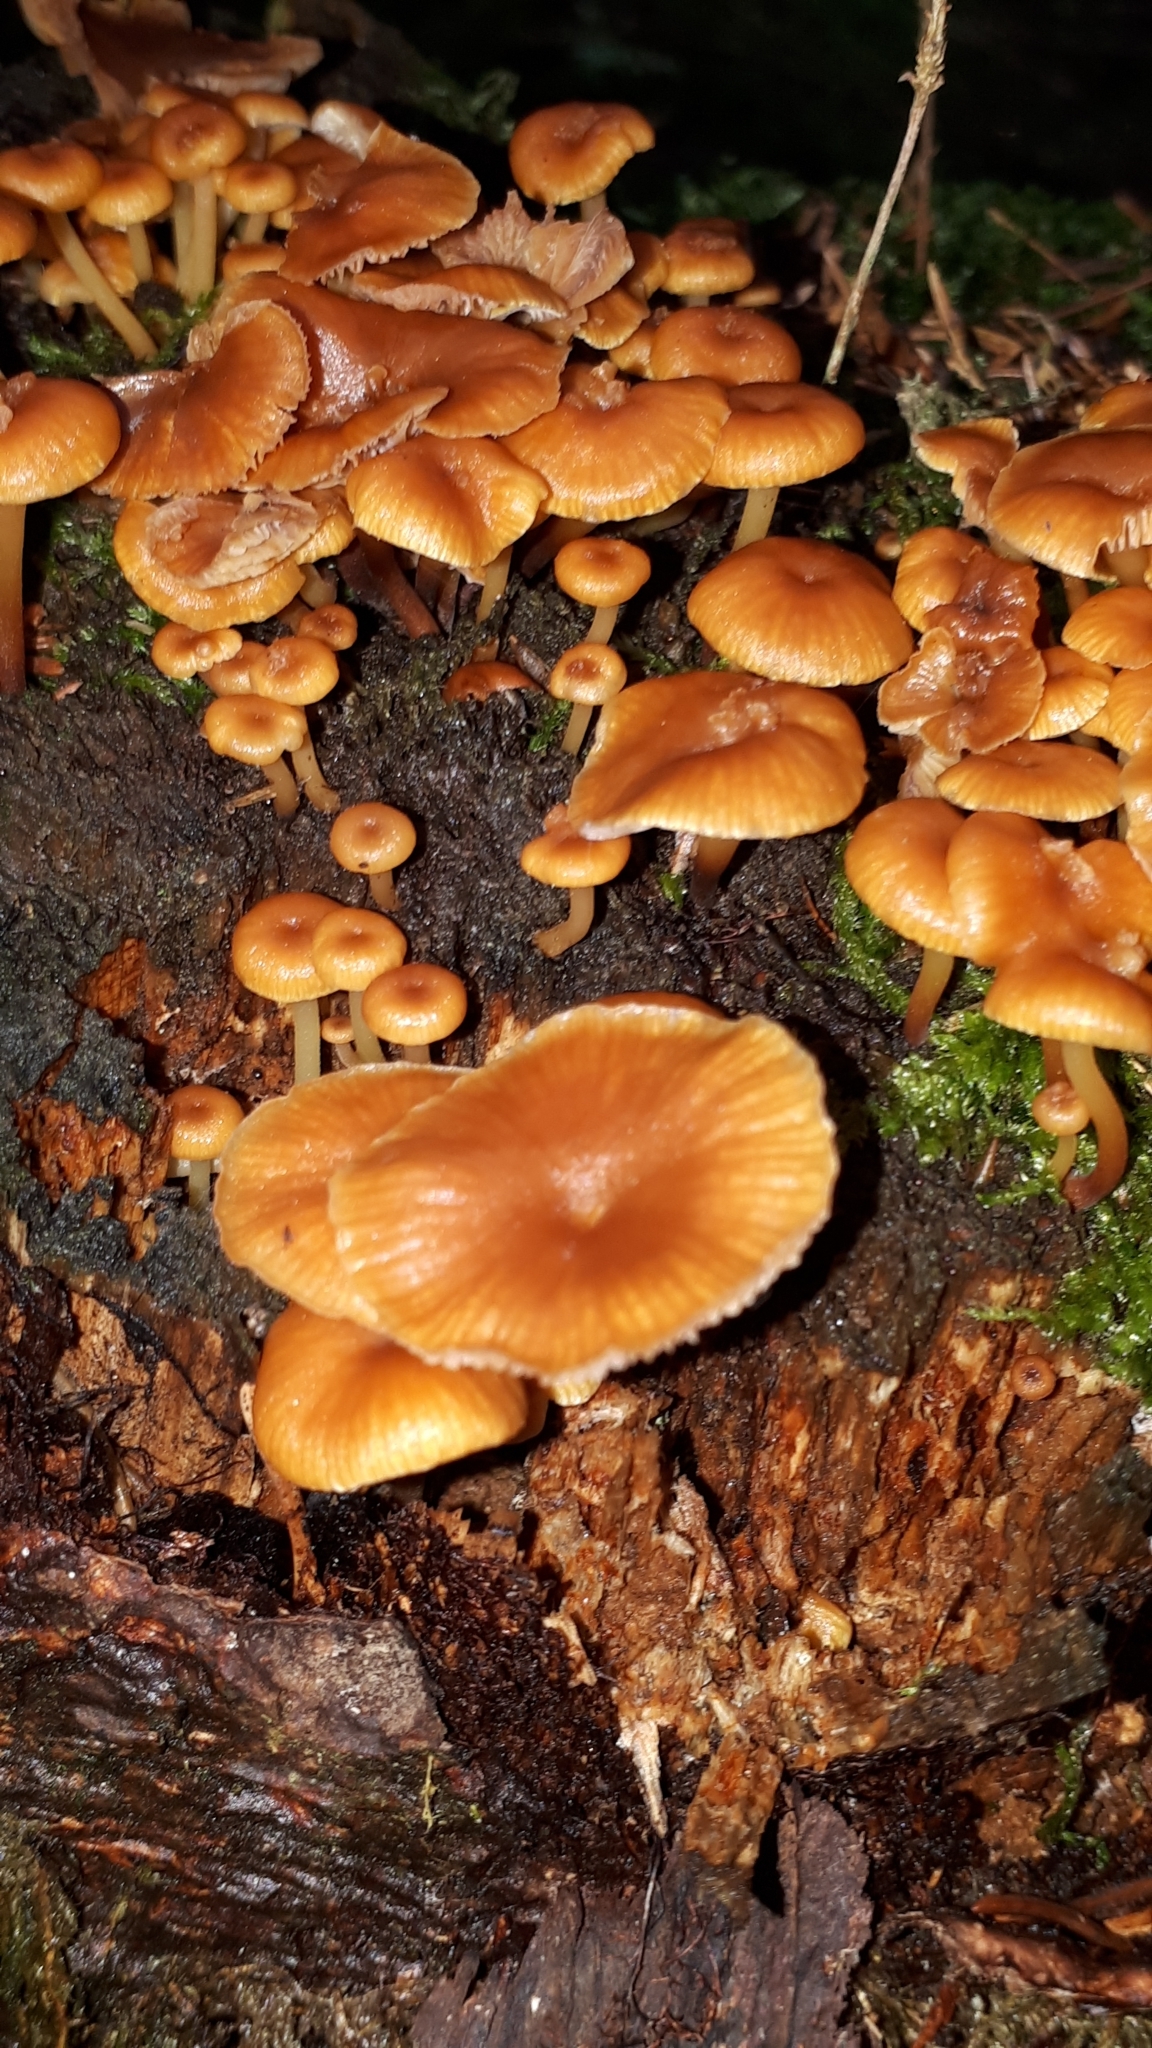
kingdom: Fungi
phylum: Basidiomycota
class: Agaricomycetes
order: Agaricales
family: Mycenaceae
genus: Xeromphalina
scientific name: Xeromphalina campanella
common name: Pinewood gingertail
